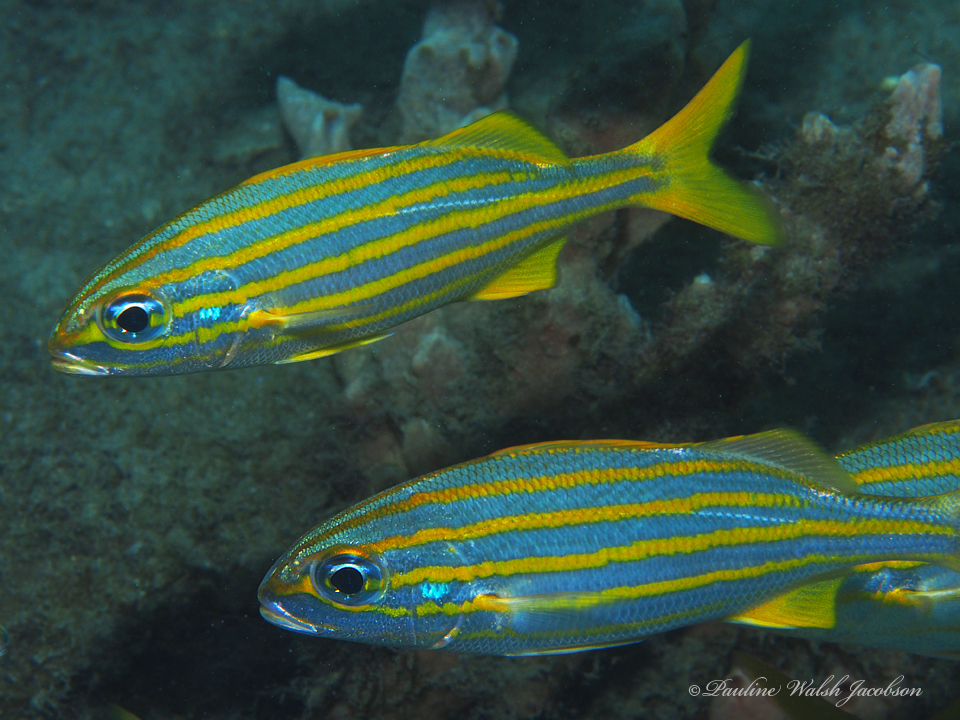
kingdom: Animalia
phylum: Chordata
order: Perciformes
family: Haemulidae
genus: Haemulon
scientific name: Haemulon chrysargyreum
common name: Smallmouth grunt
